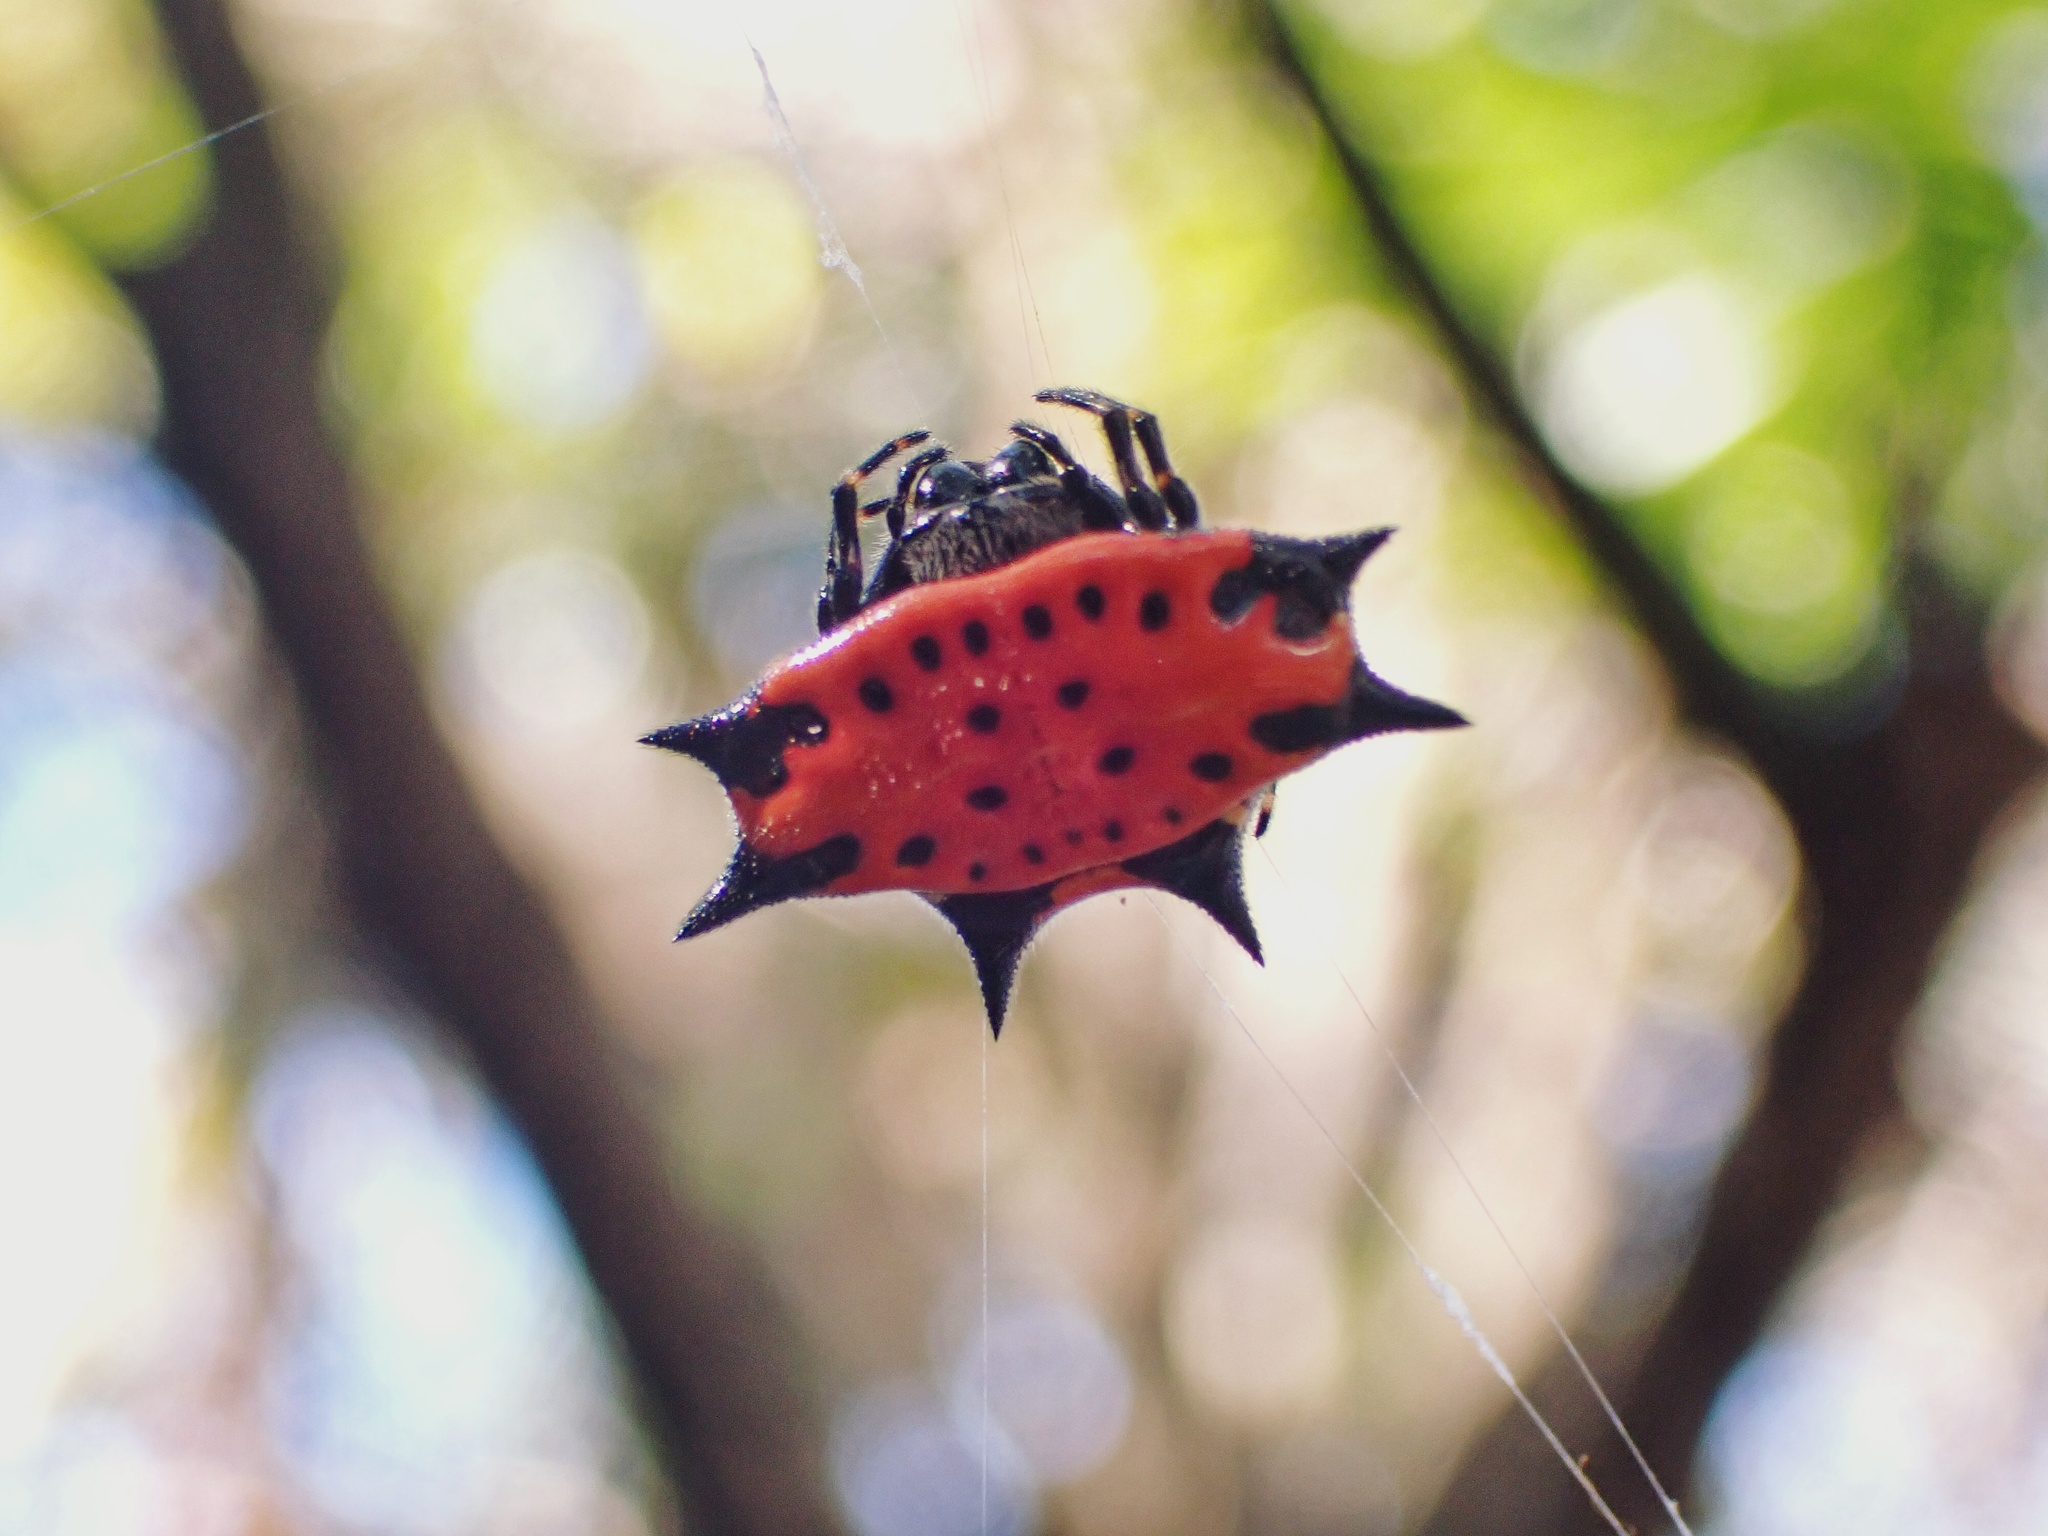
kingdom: Animalia
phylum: Arthropoda
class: Arachnida
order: Araneae
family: Araneidae
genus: Gasteracantha
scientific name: Gasteracantha cancriformis
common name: Orb weavers
